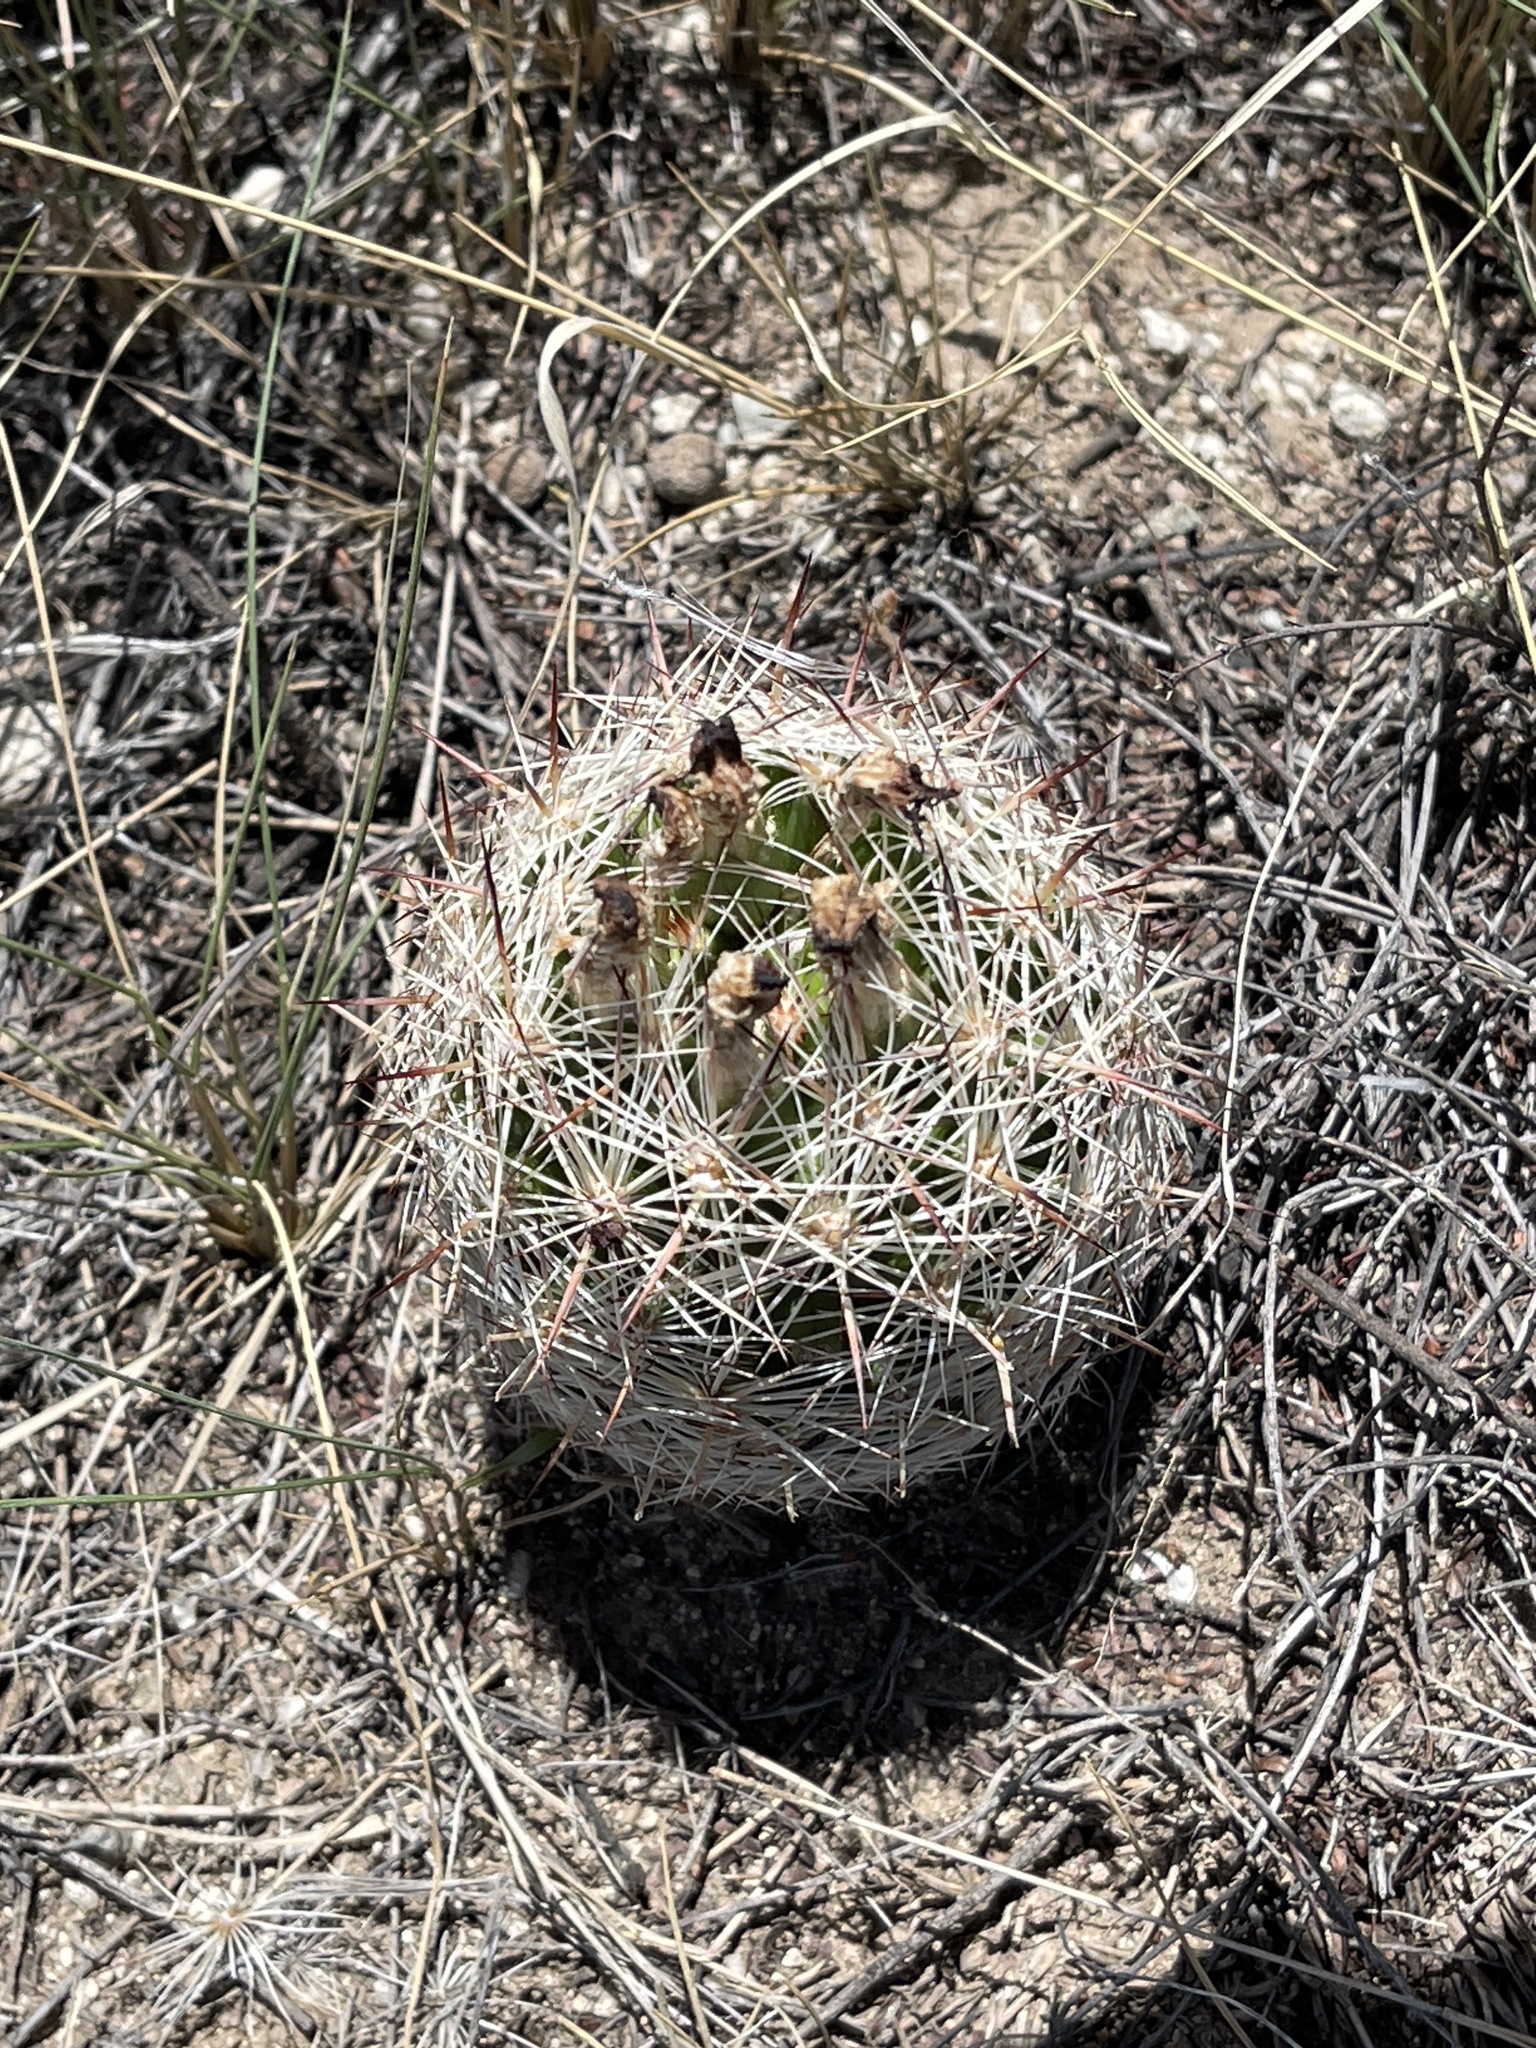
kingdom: Plantae
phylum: Tracheophyta
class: Magnoliopsida
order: Caryophyllales
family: Cactaceae
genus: Pelecyphora
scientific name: Pelecyphora vivipara
